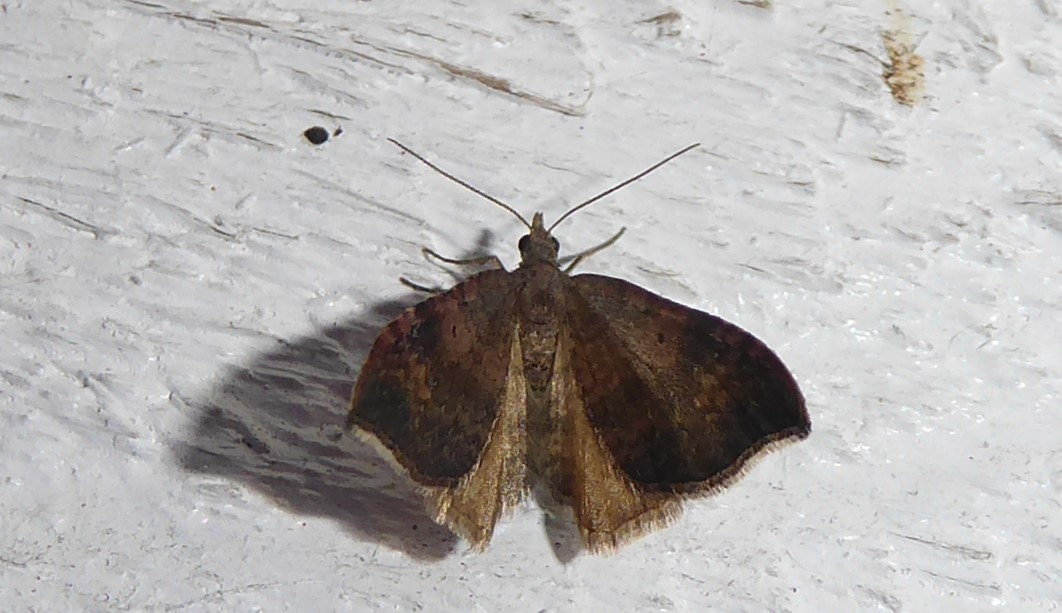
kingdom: Animalia
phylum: Arthropoda
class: Insecta
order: Lepidoptera
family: Geometridae
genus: Homodotis
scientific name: Homodotis megaspilata
